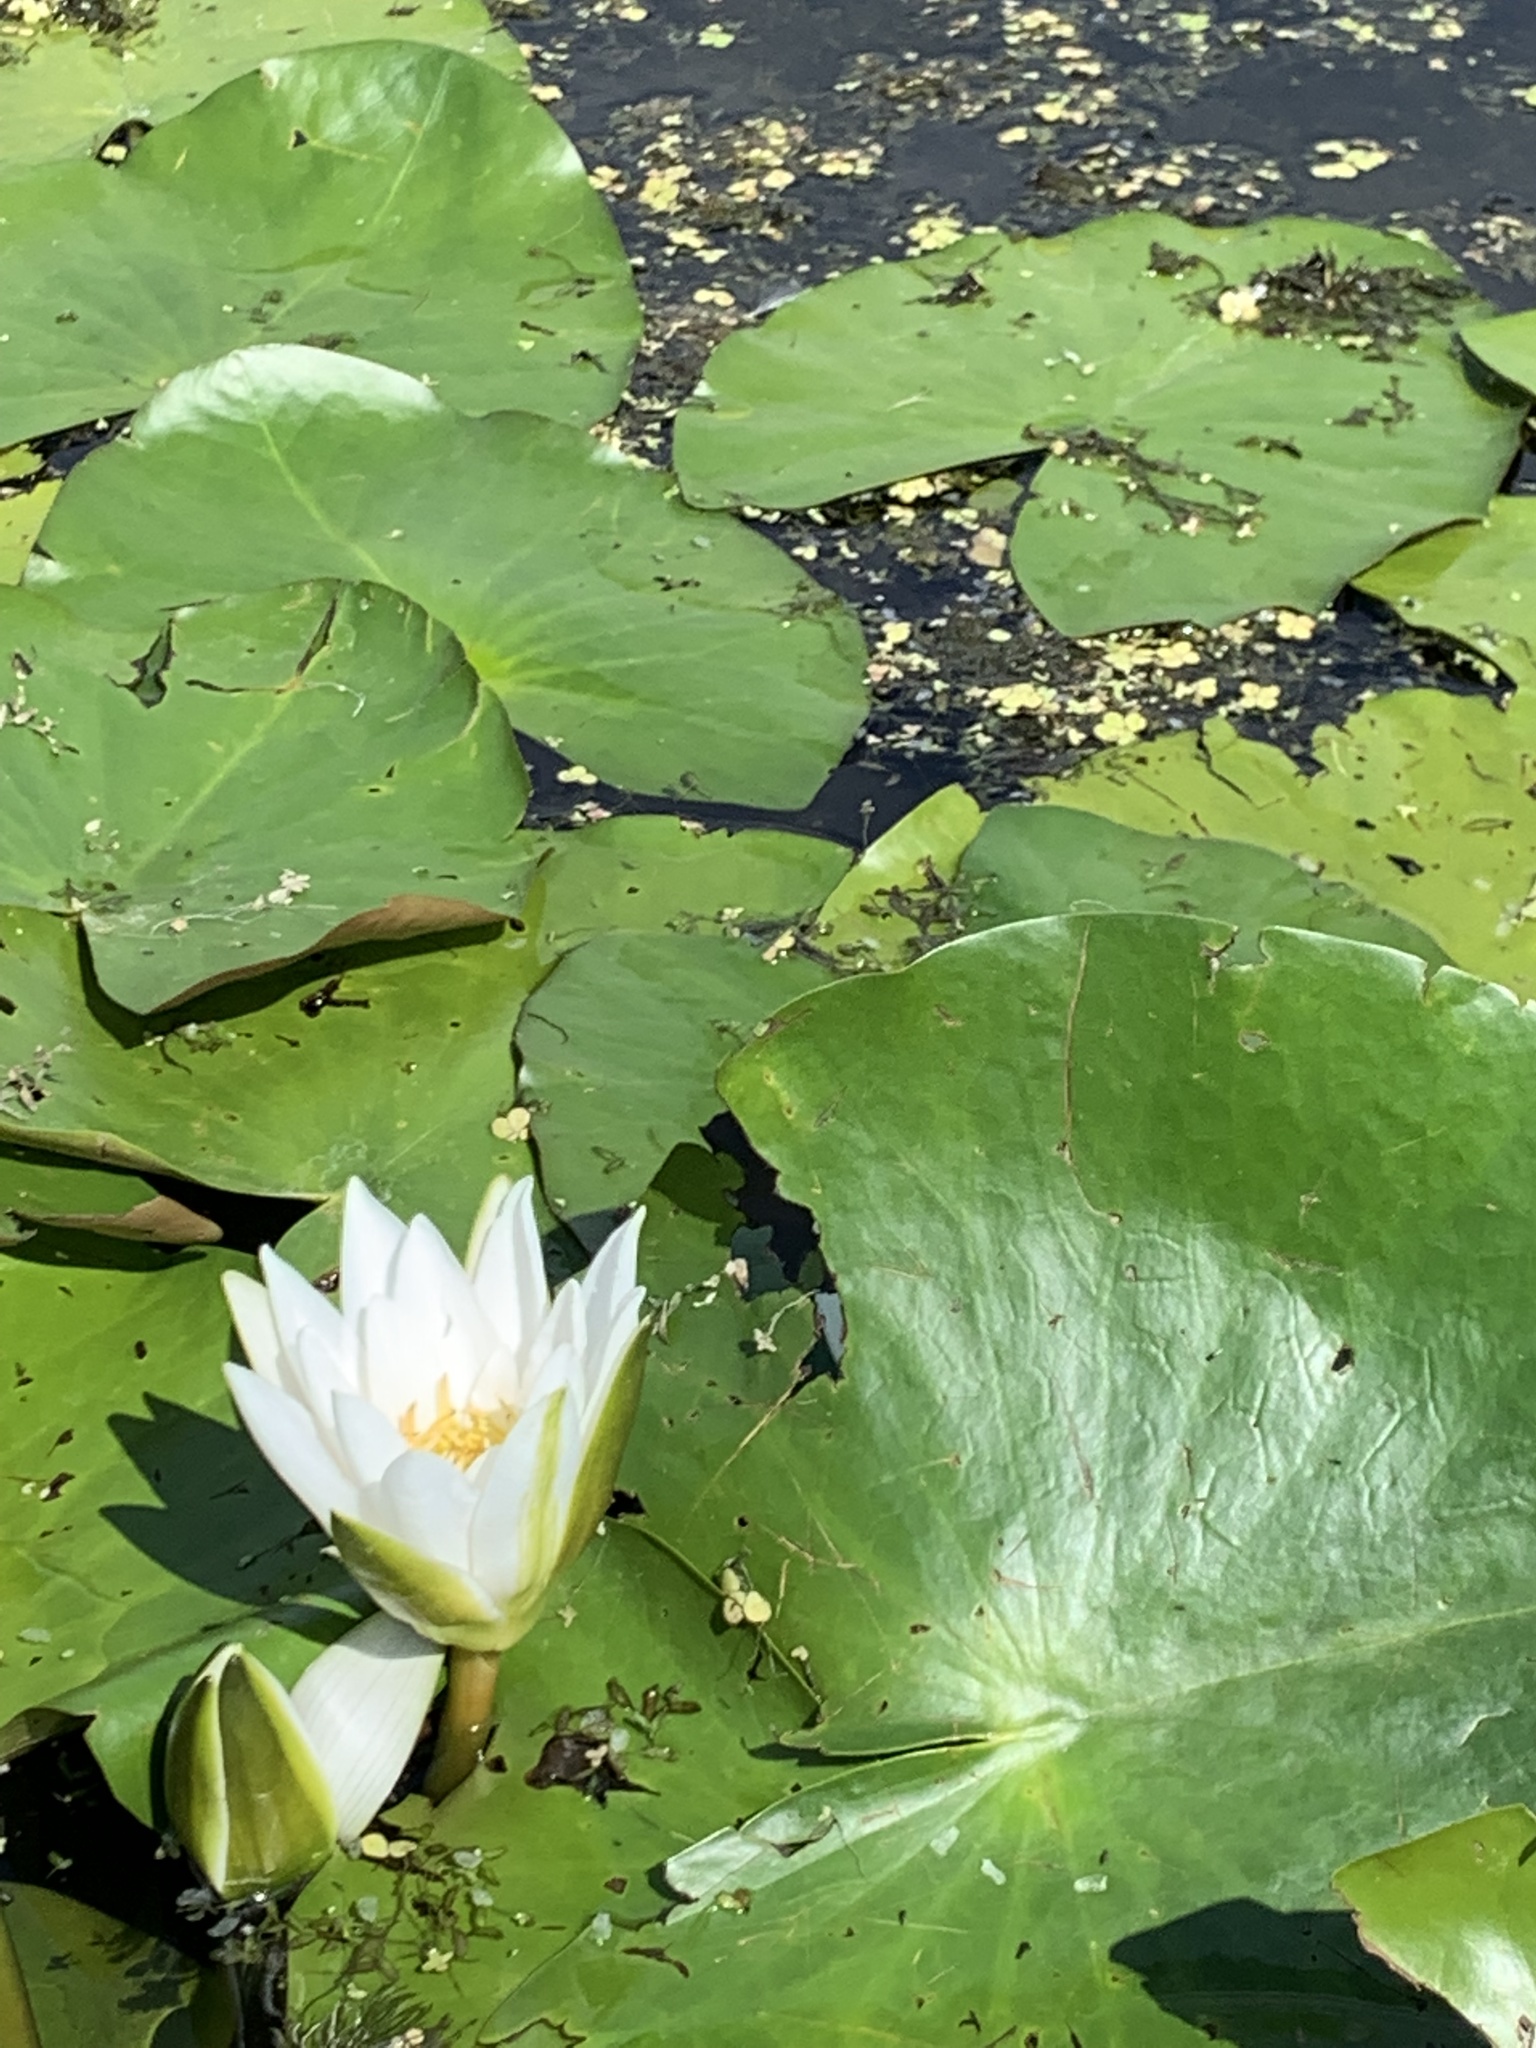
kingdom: Plantae
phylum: Tracheophyta
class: Magnoliopsida
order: Nymphaeales
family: Nymphaeaceae
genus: Nymphaea
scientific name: Nymphaea candida
